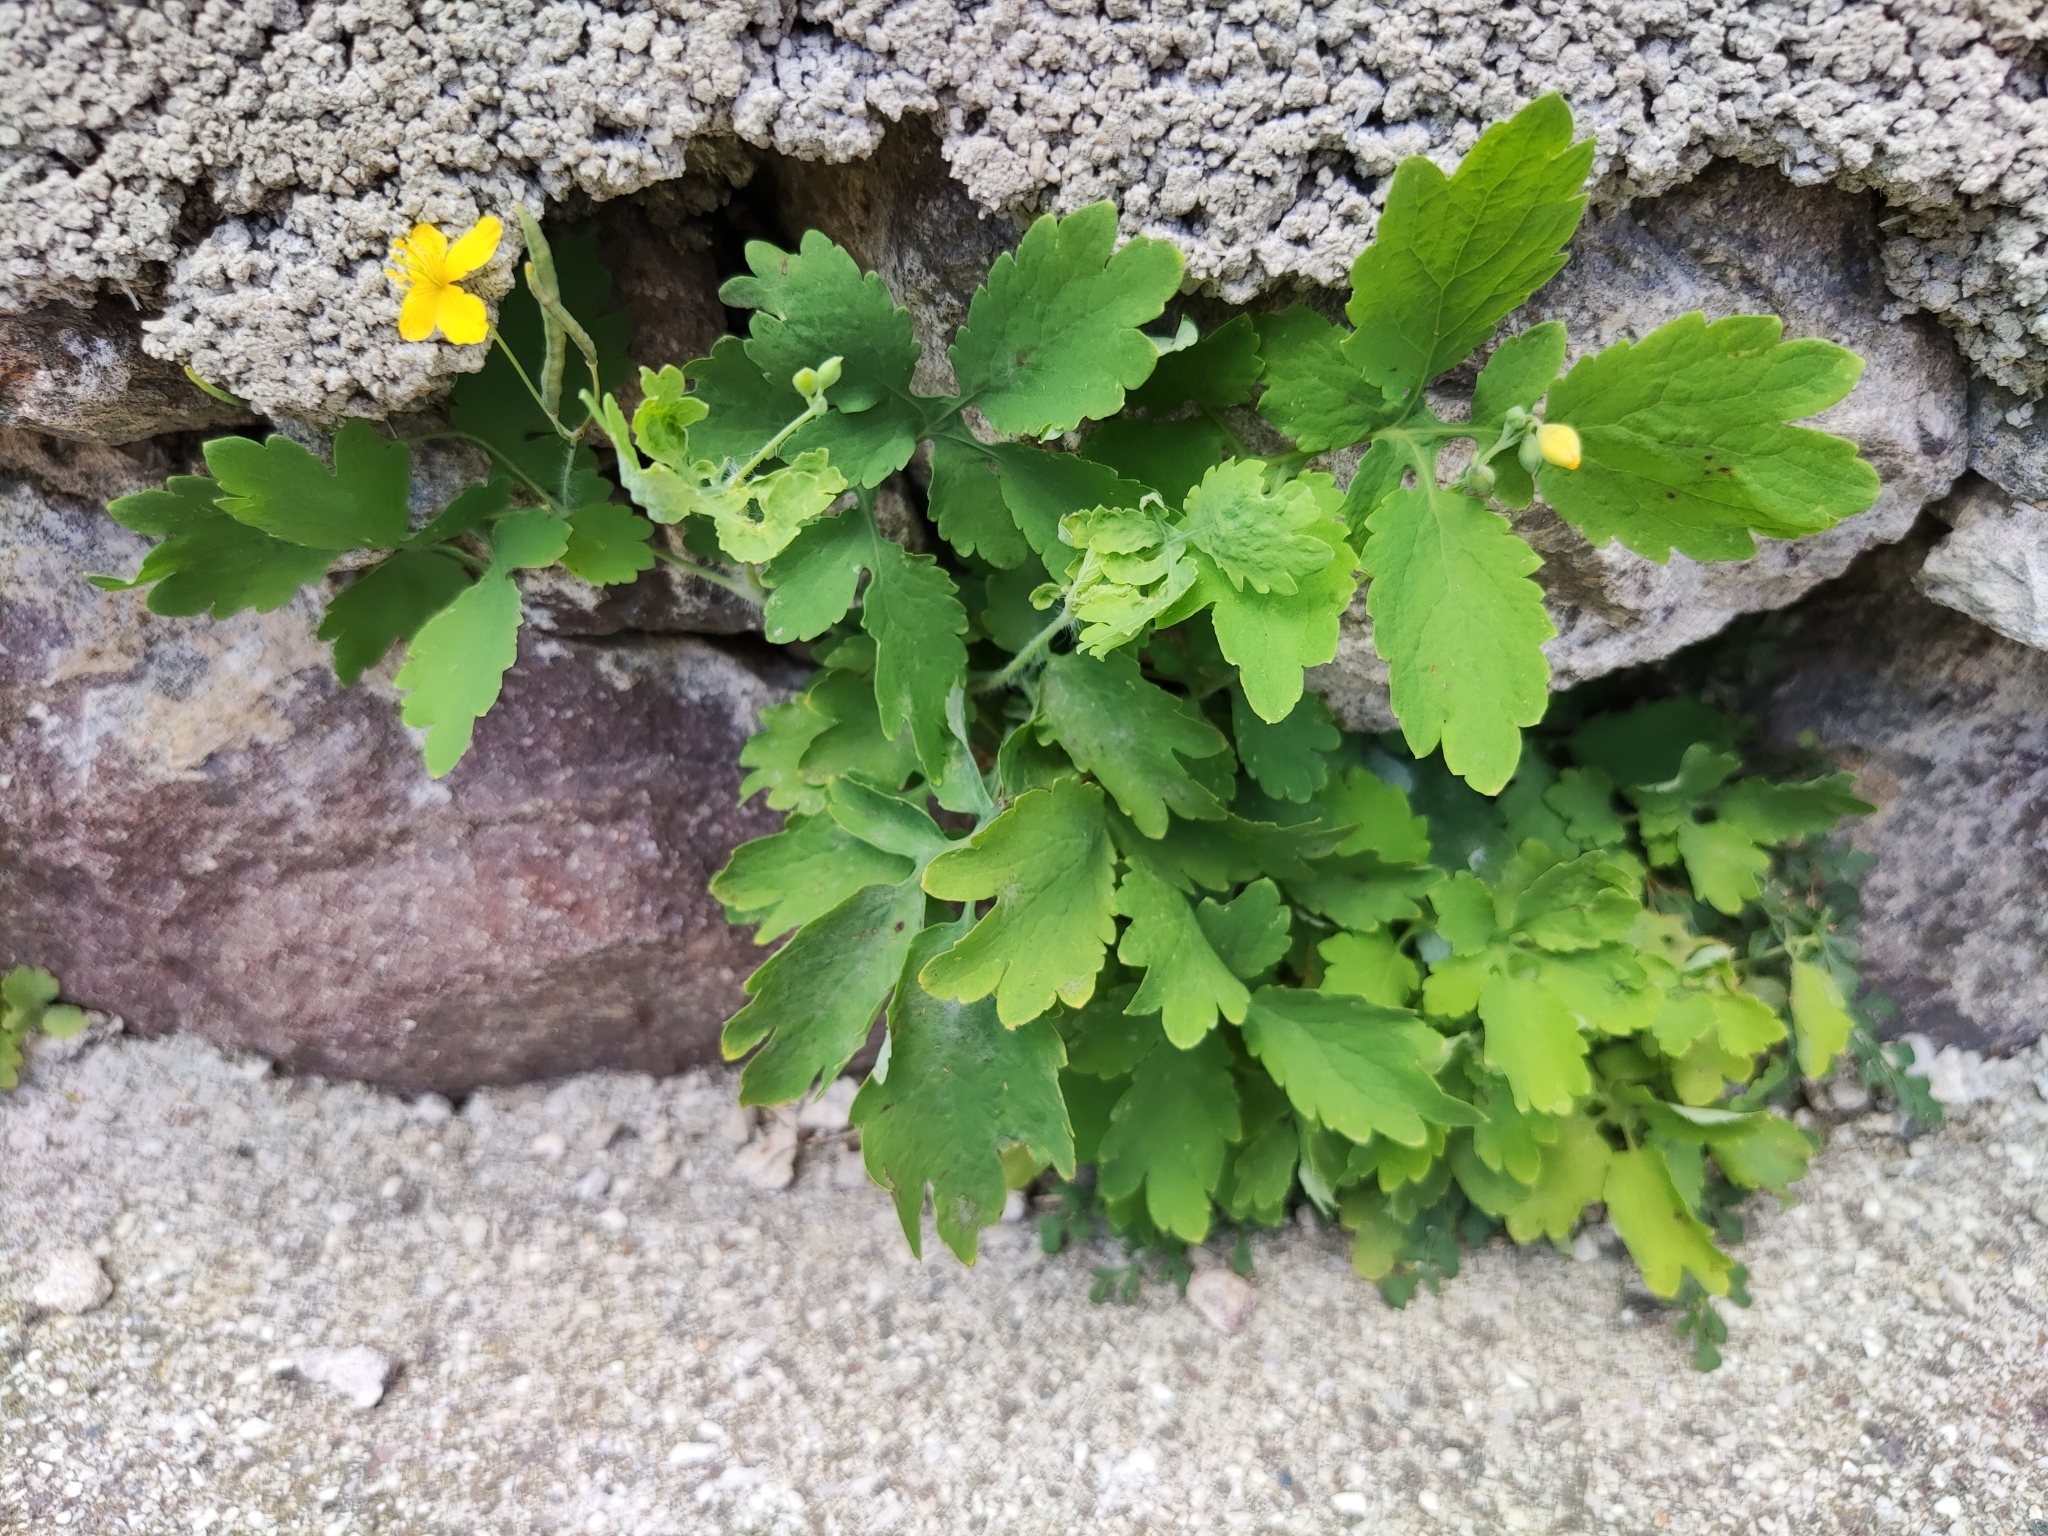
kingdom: Plantae
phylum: Tracheophyta
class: Magnoliopsida
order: Ranunculales
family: Papaveraceae
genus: Chelidonium
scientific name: Chelidonium majus
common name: Greater celandine
